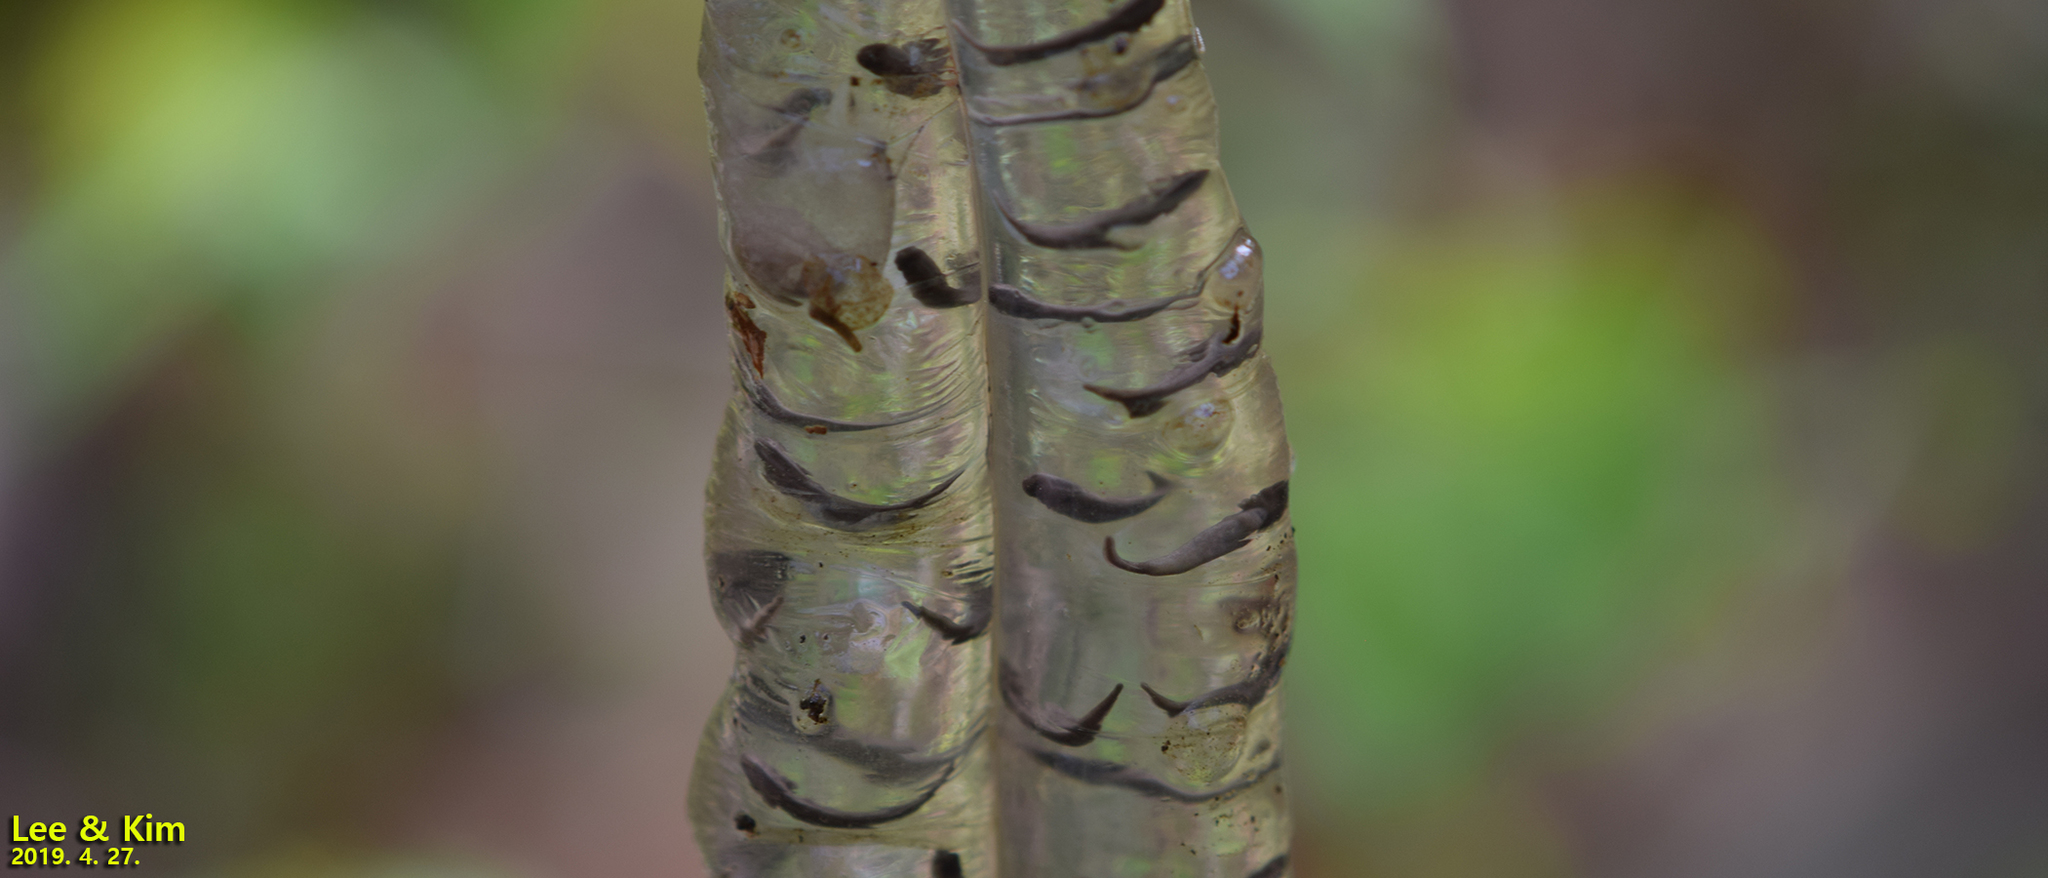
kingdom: Animalia
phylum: Chordata
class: Amphibia
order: Caudata
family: Hynobiidae
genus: Hynobius
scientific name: Hynobius leechii
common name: Gensan salamander
